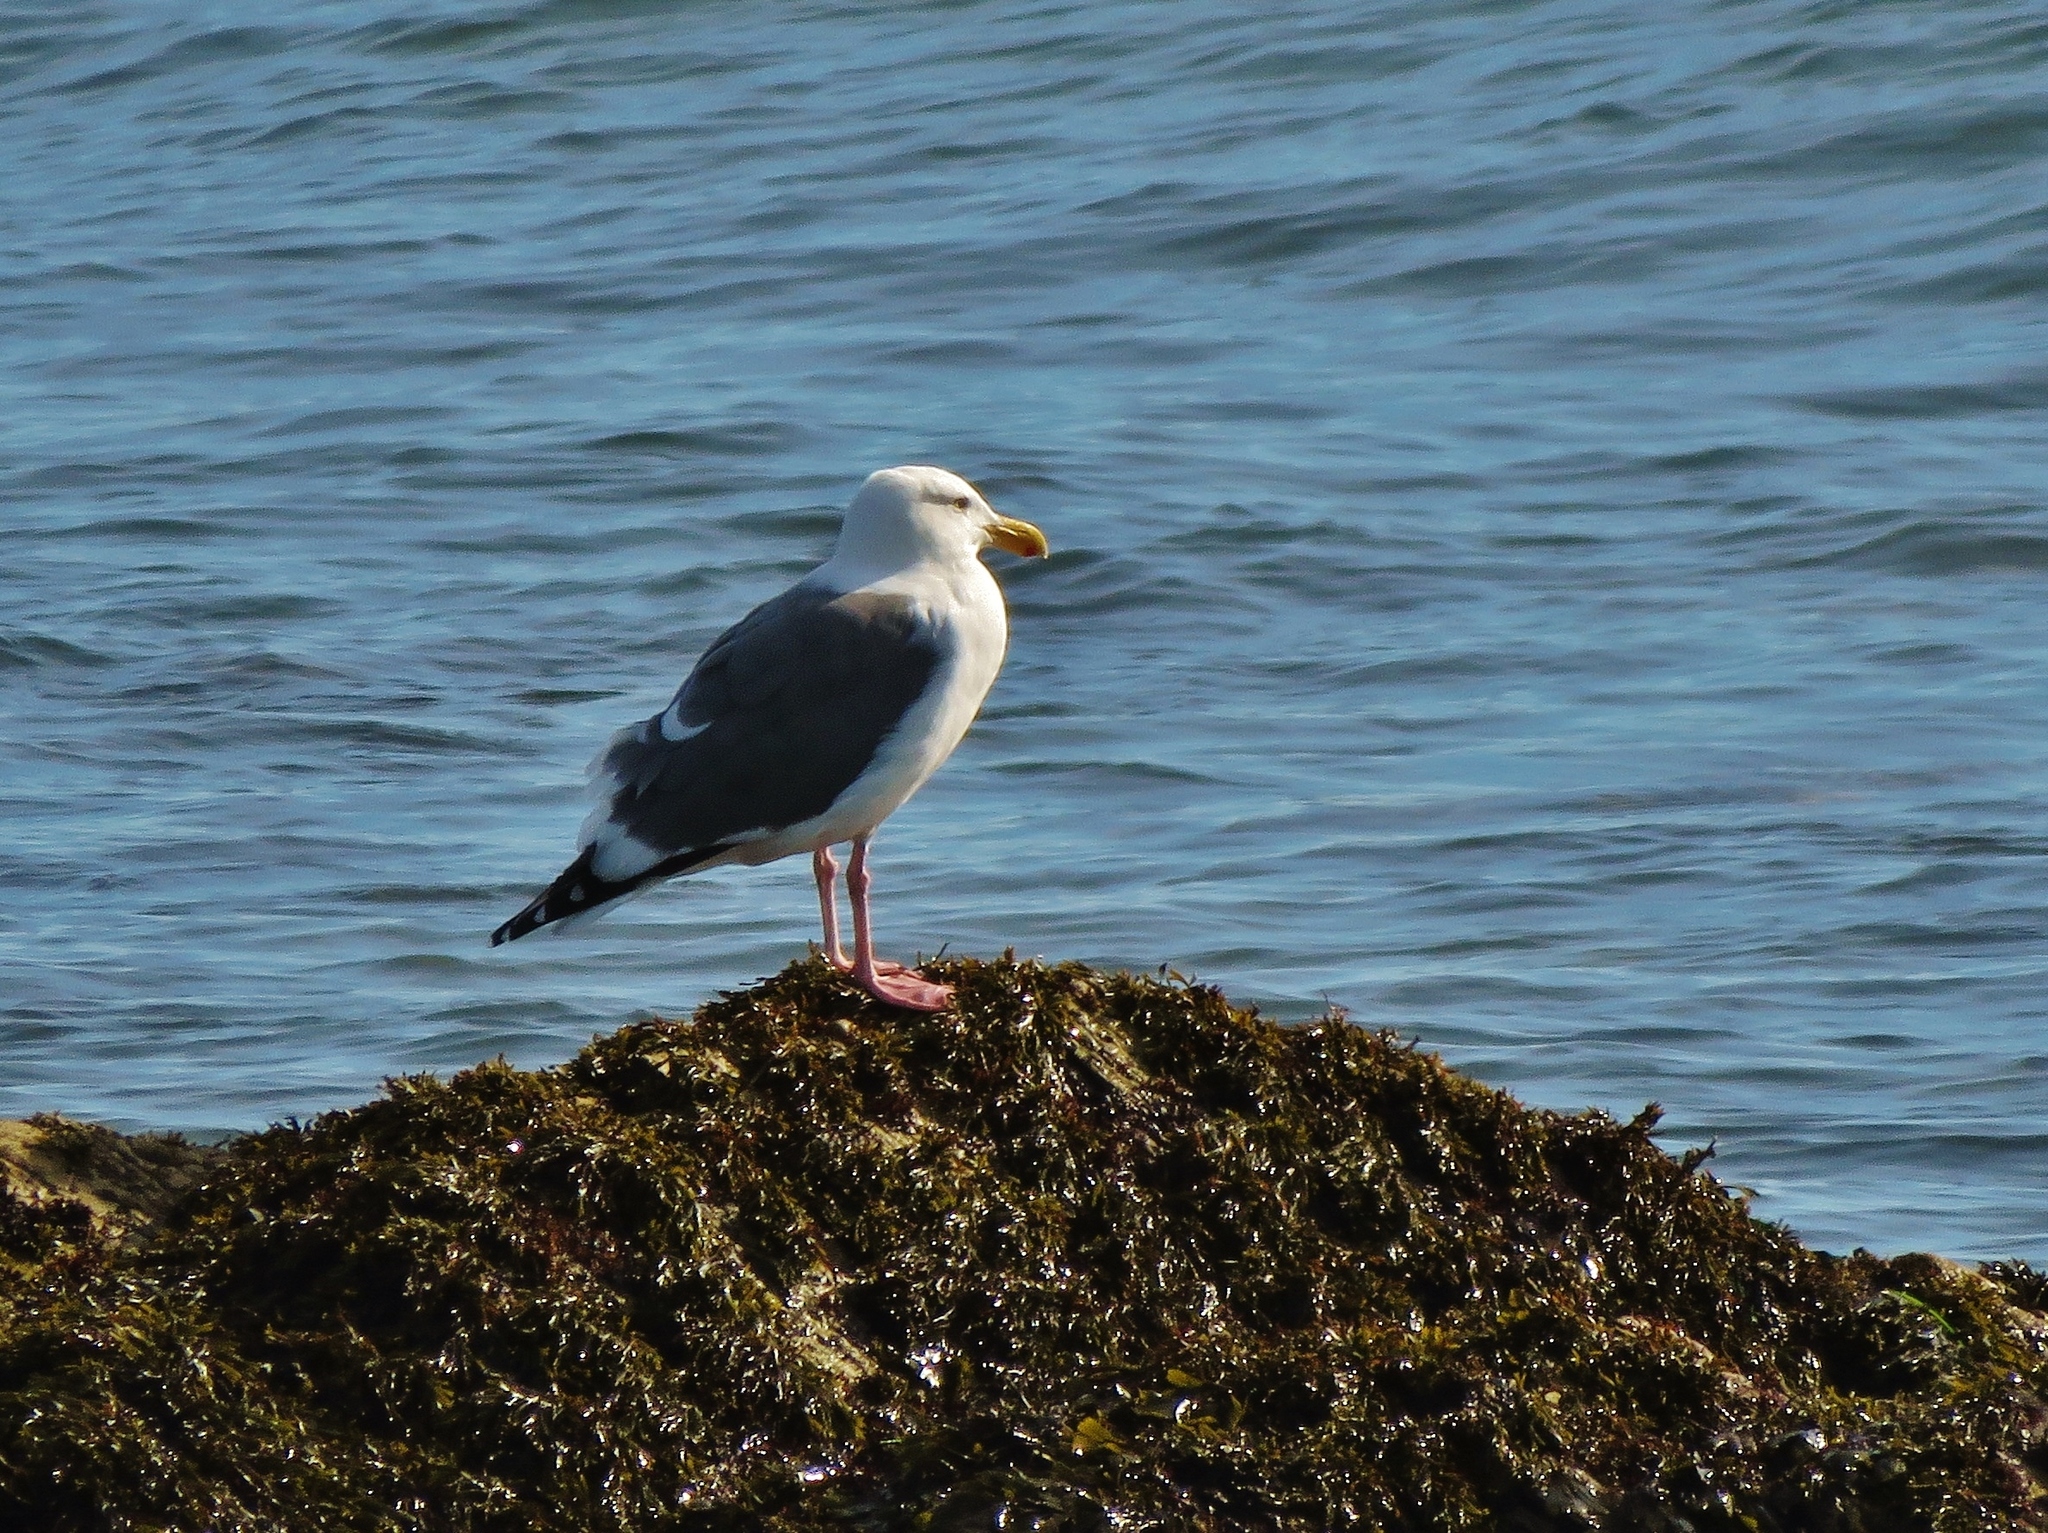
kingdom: Animalia
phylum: Chordata
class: Aves
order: Charadriiformes
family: Laridae
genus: Larus
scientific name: Larus occidentalis
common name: Western gull
